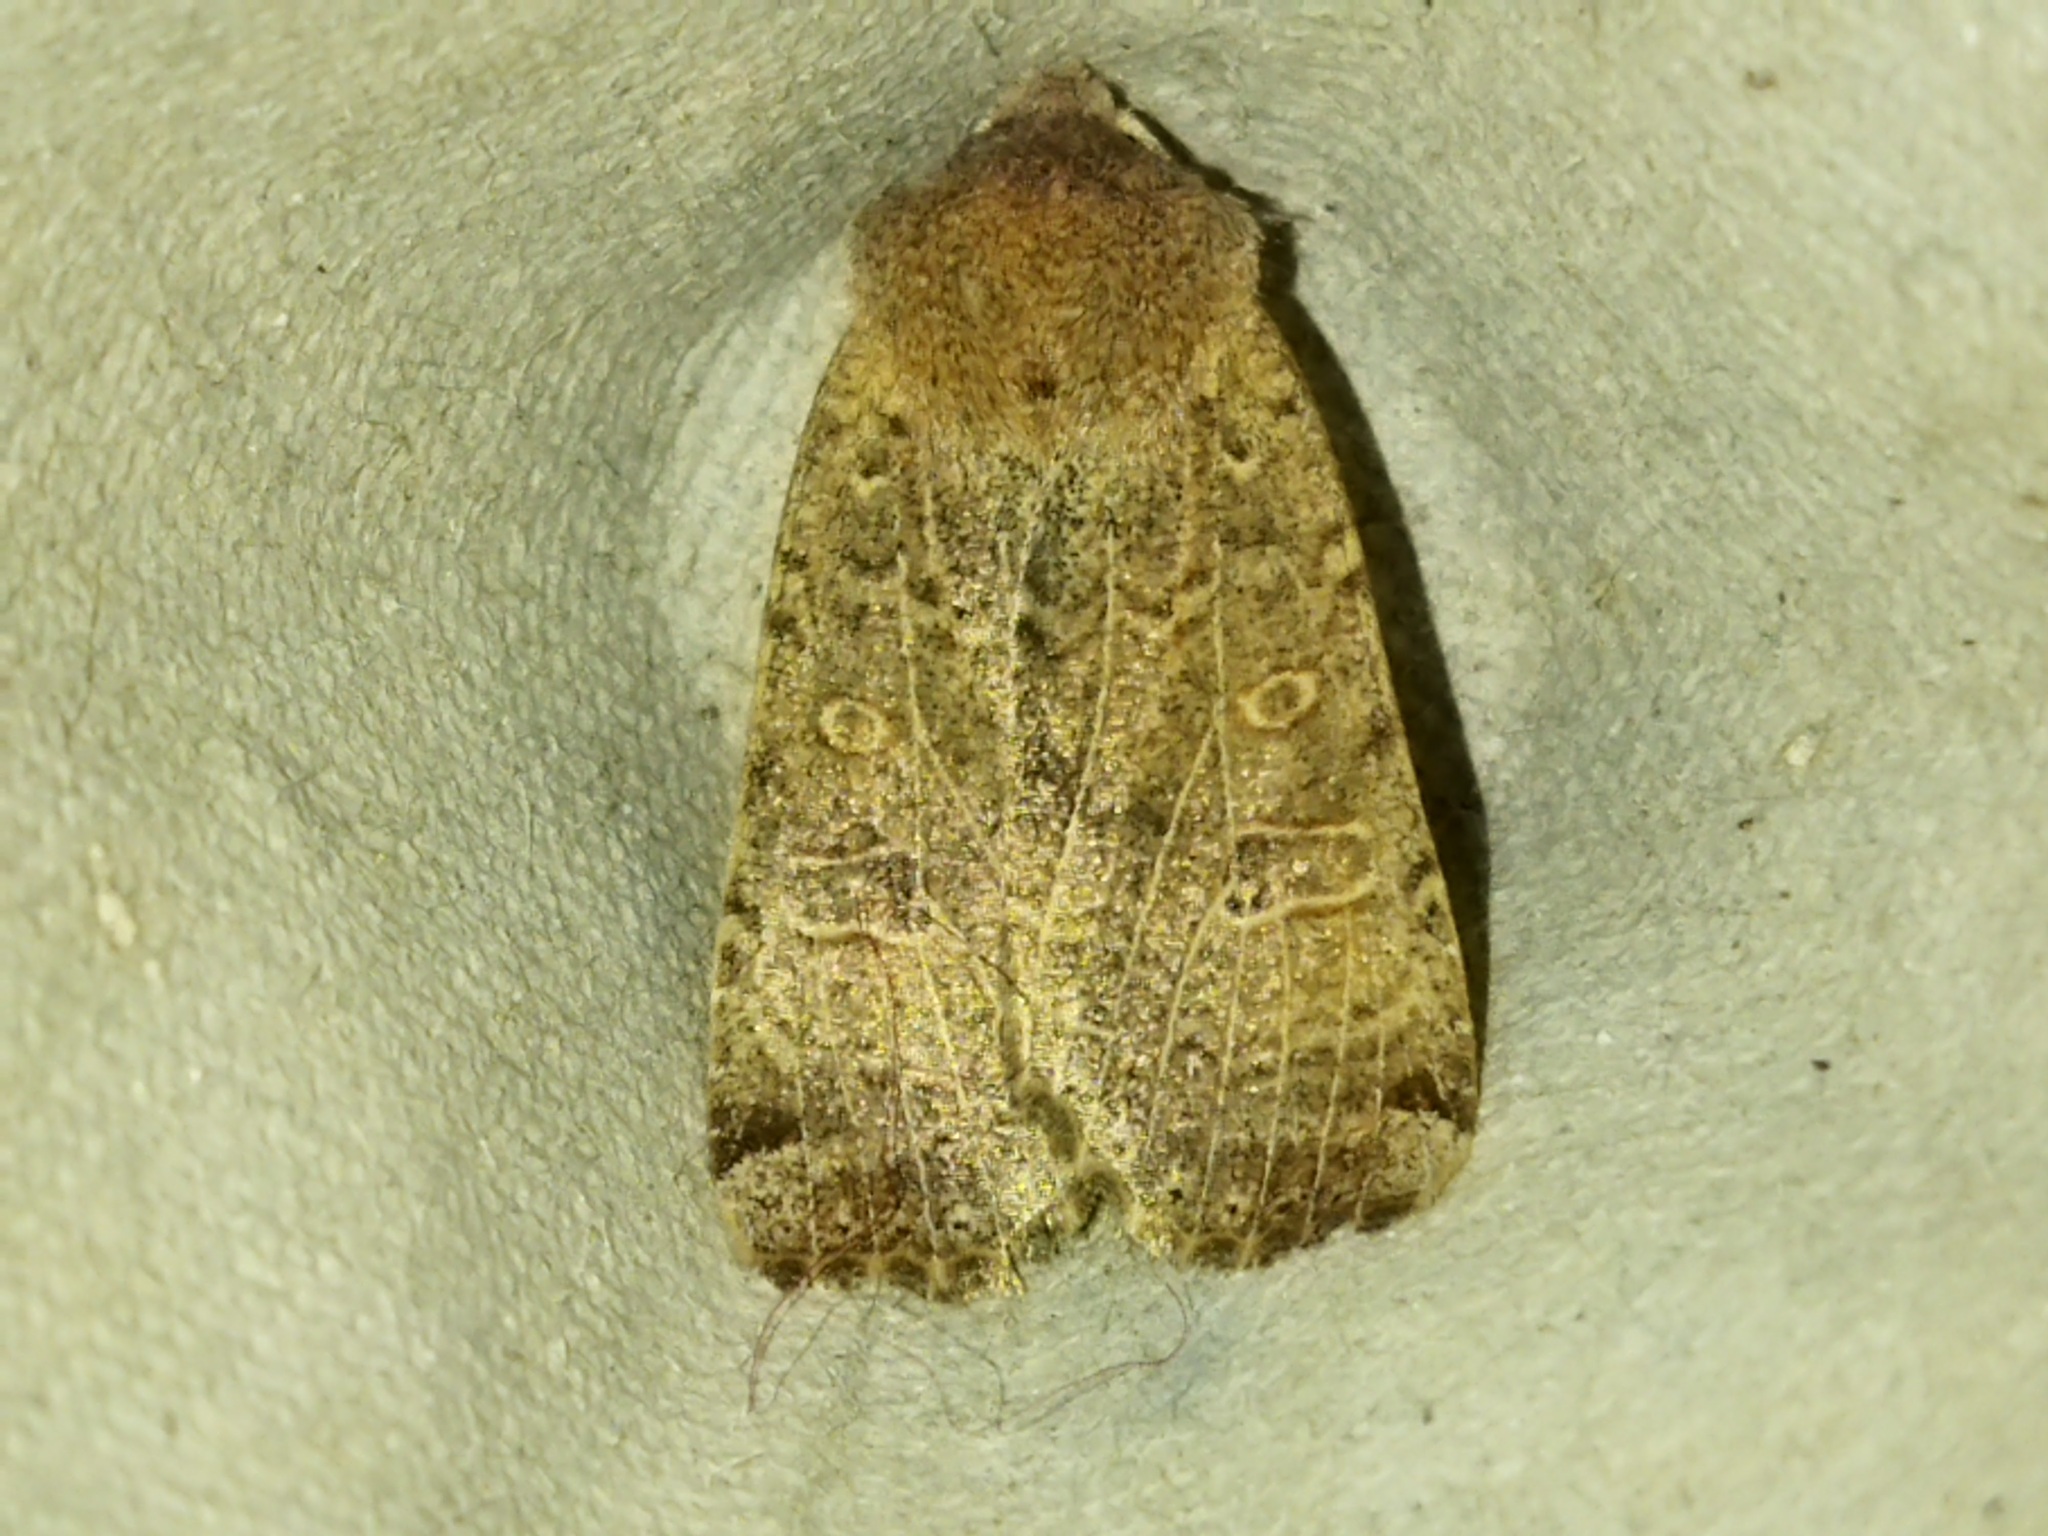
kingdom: Animalia
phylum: Arthropoda
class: Insecta
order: Lepidoptera
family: Noctuidae
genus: Conistra
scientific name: Conistra veronicae
